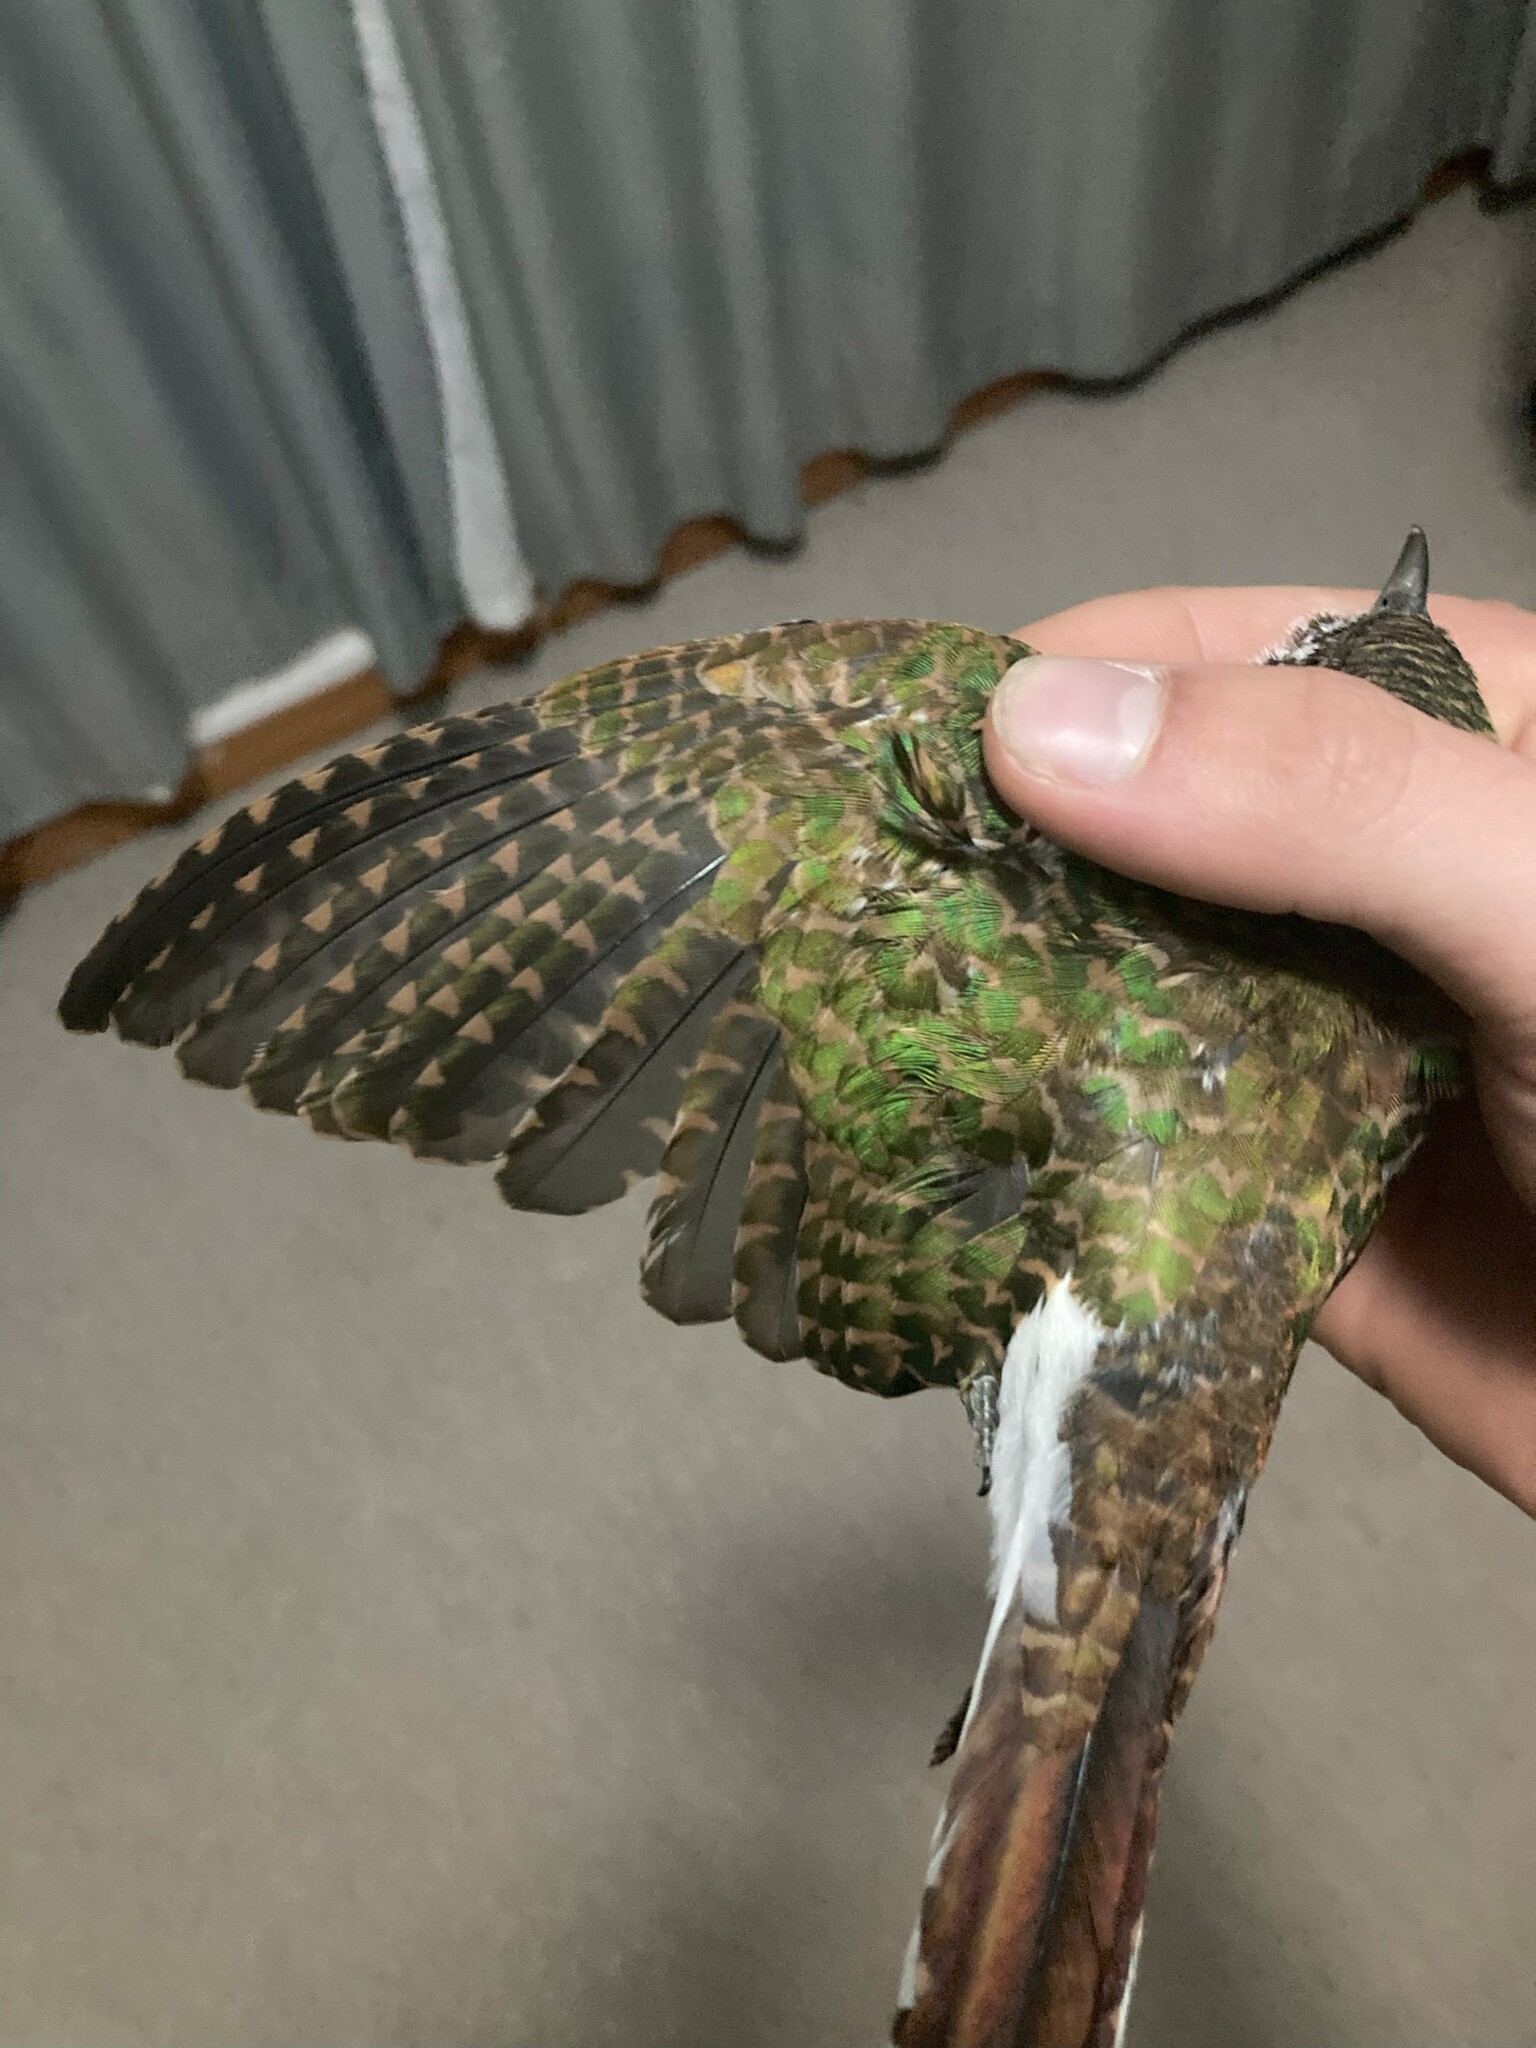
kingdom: Animalia
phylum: Chordata
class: Aves
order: Cuculiformes
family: Cuculidae
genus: Chrysococcyx
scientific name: Chrysococcyx klaas
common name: Klaas's cuckoo
